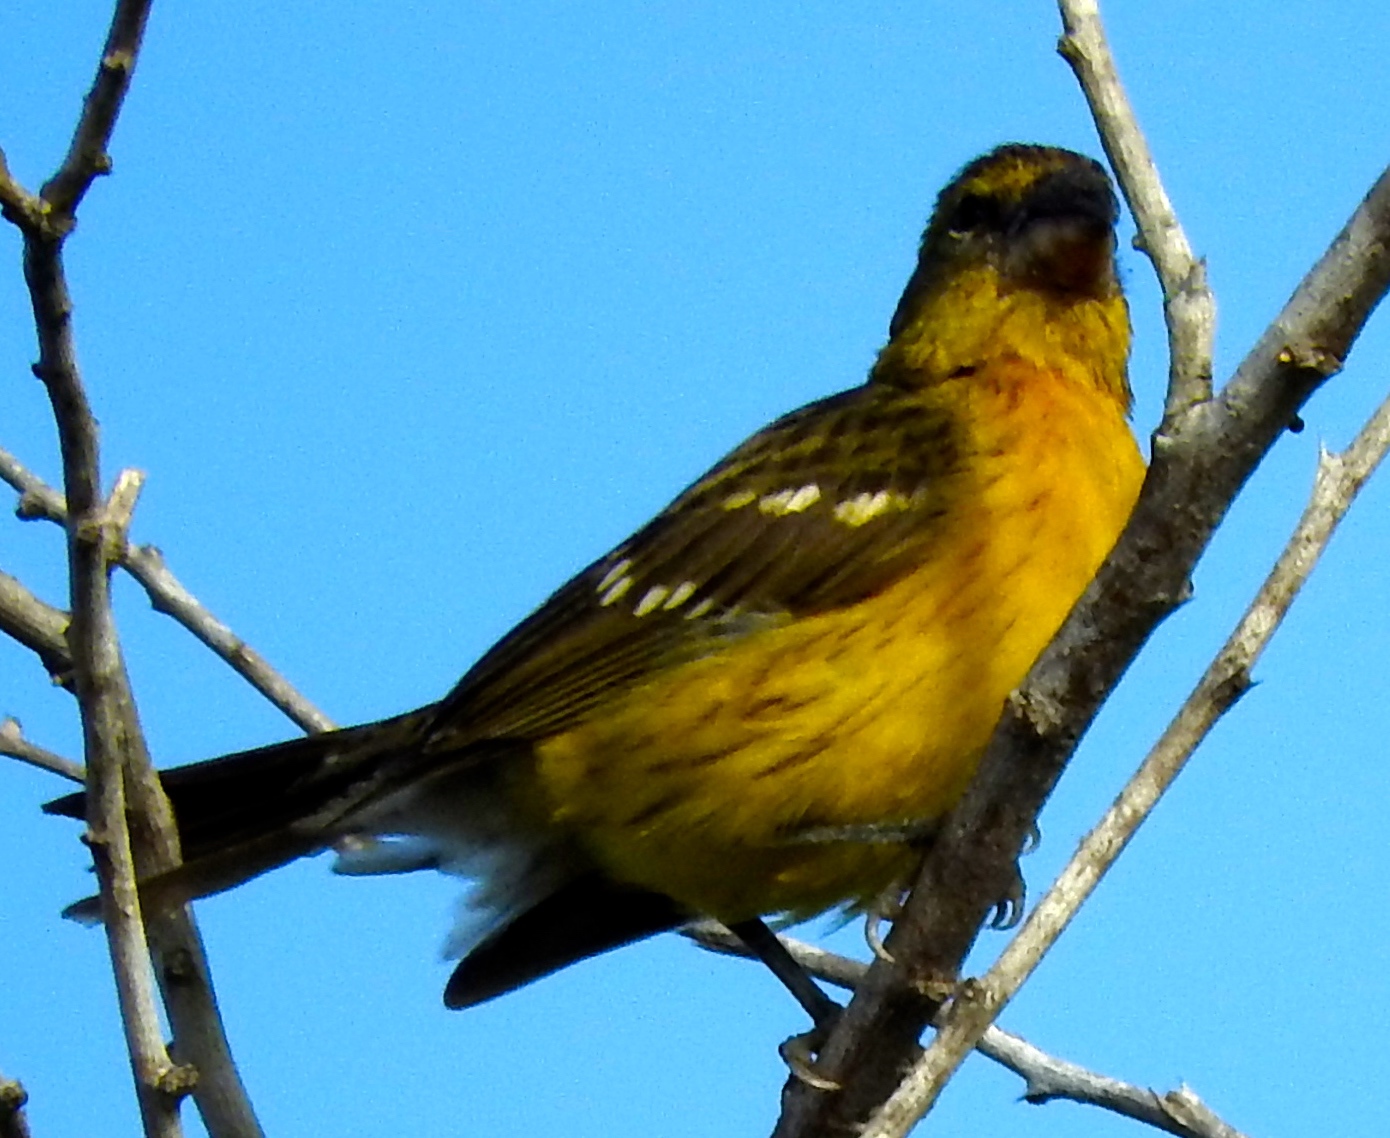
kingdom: Animalia
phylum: Chordata
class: Aves
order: Passeriformes
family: Cardinalidae
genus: Pheucticus
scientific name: Pheucticus chrysopeplus
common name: Yellow grosbeak
